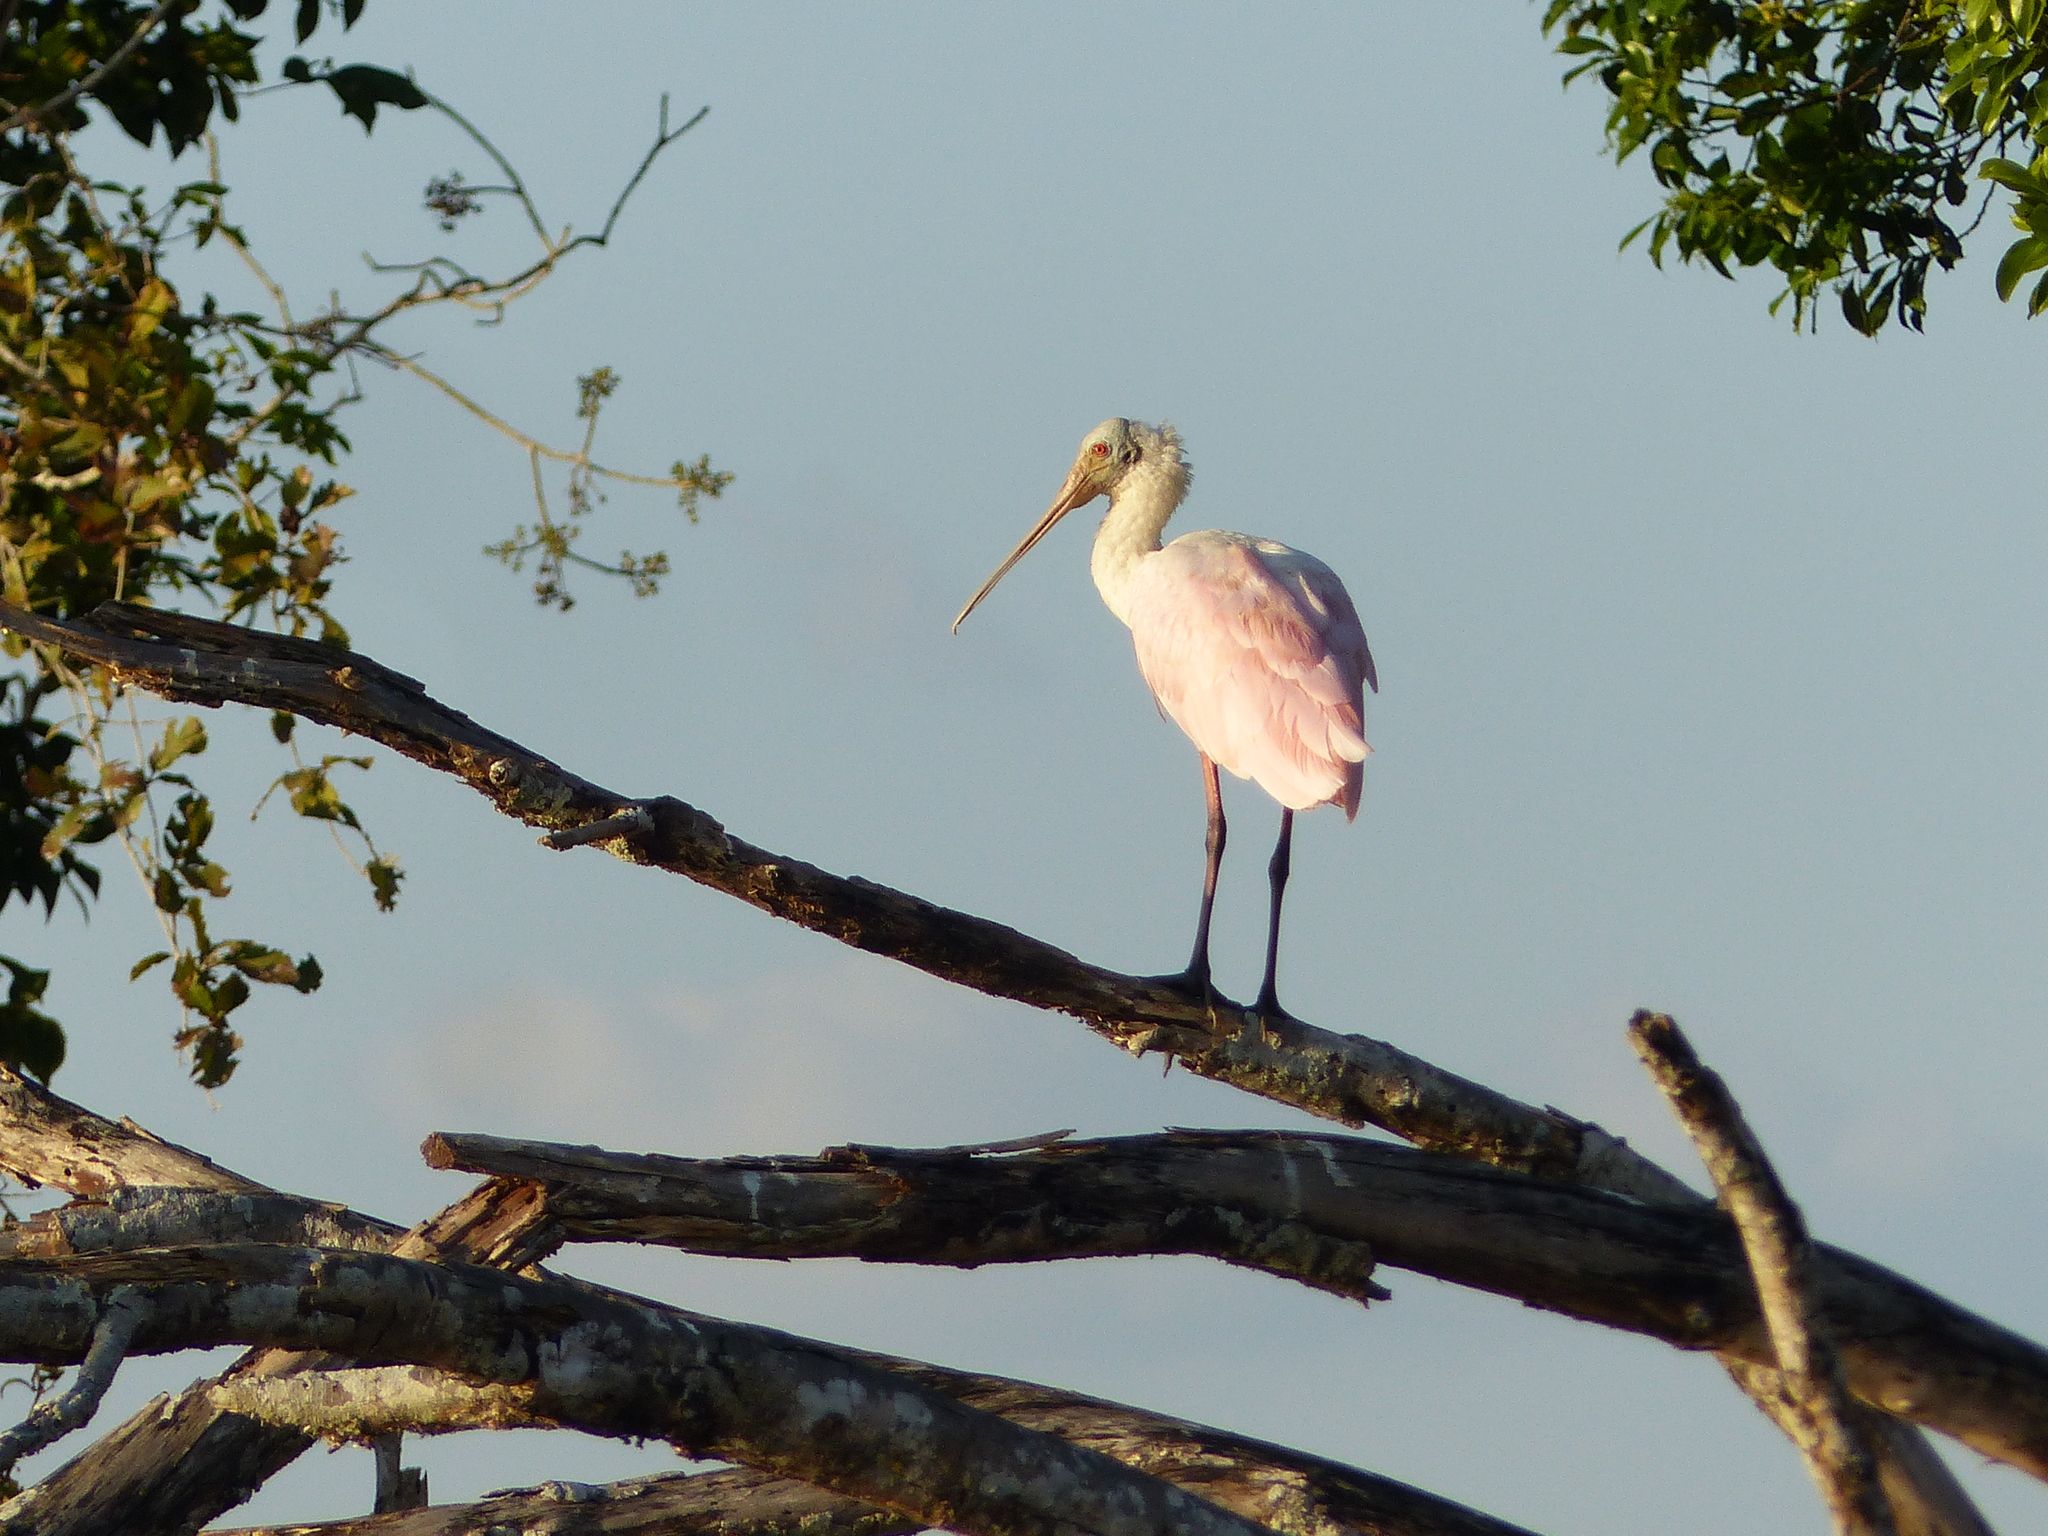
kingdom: Animalia
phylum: Chordata
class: Aves
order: Pelecaniformes
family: Threskiornithidae
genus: Platalea
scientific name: Platalea ajaja
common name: Roseate spoonbill
